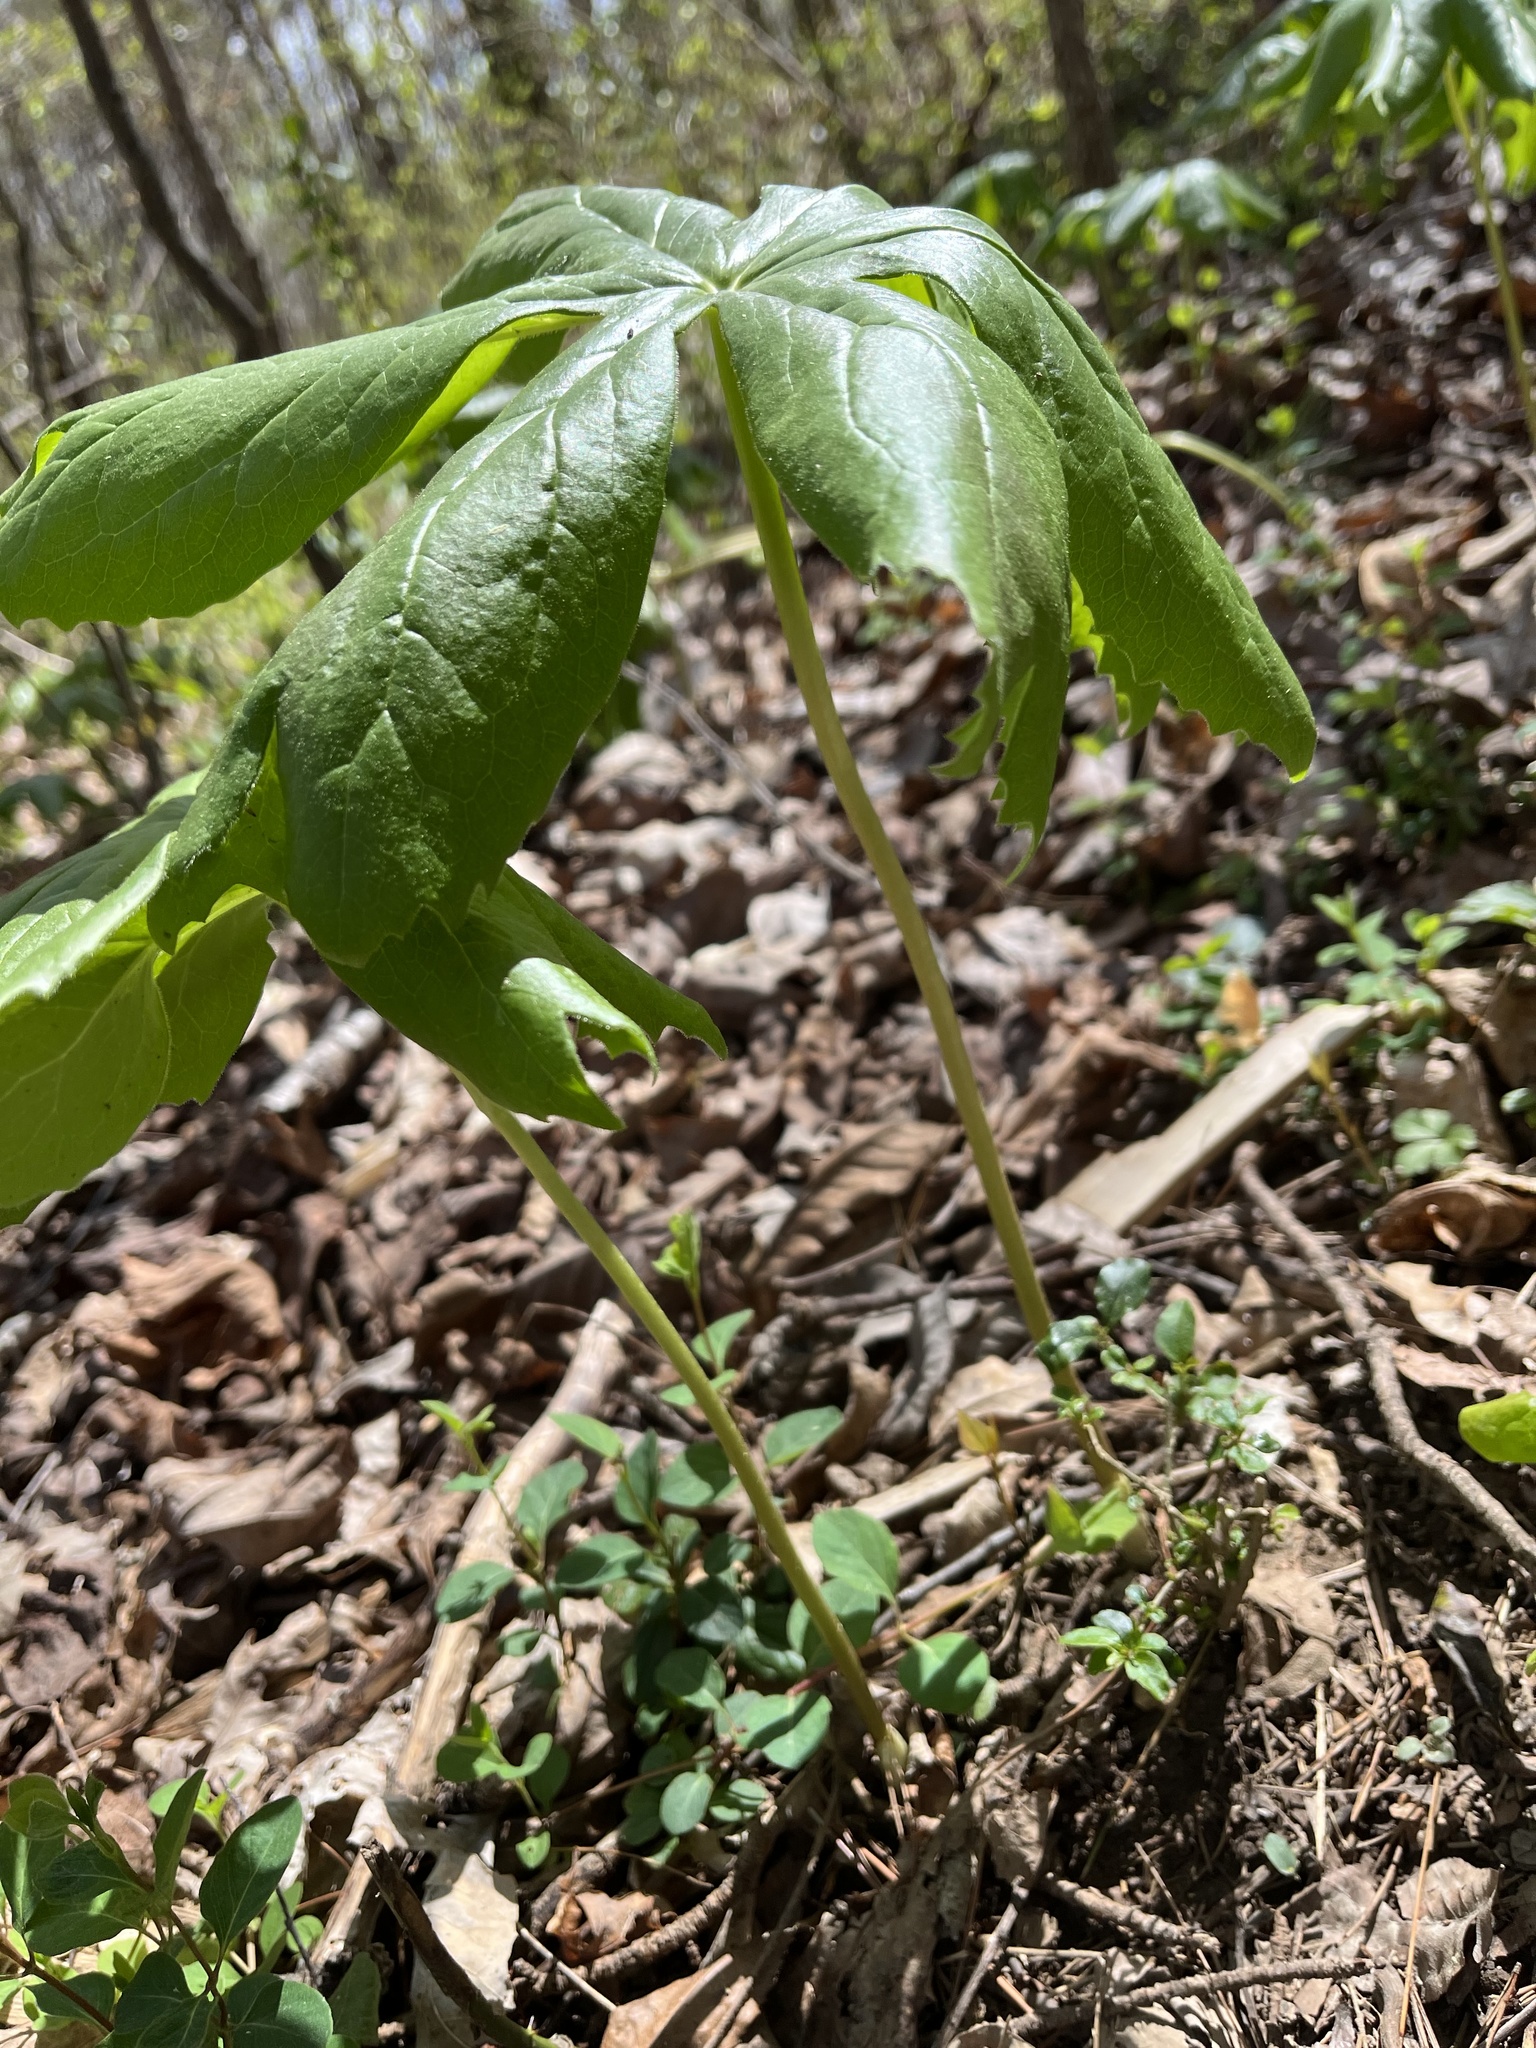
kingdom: Plantae
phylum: Tracheophyta
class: Magnoliopsida
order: Ranunculales
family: Berberidaceae
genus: Podophyllum
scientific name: Podophyllum peltatum
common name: Wild mandrake
